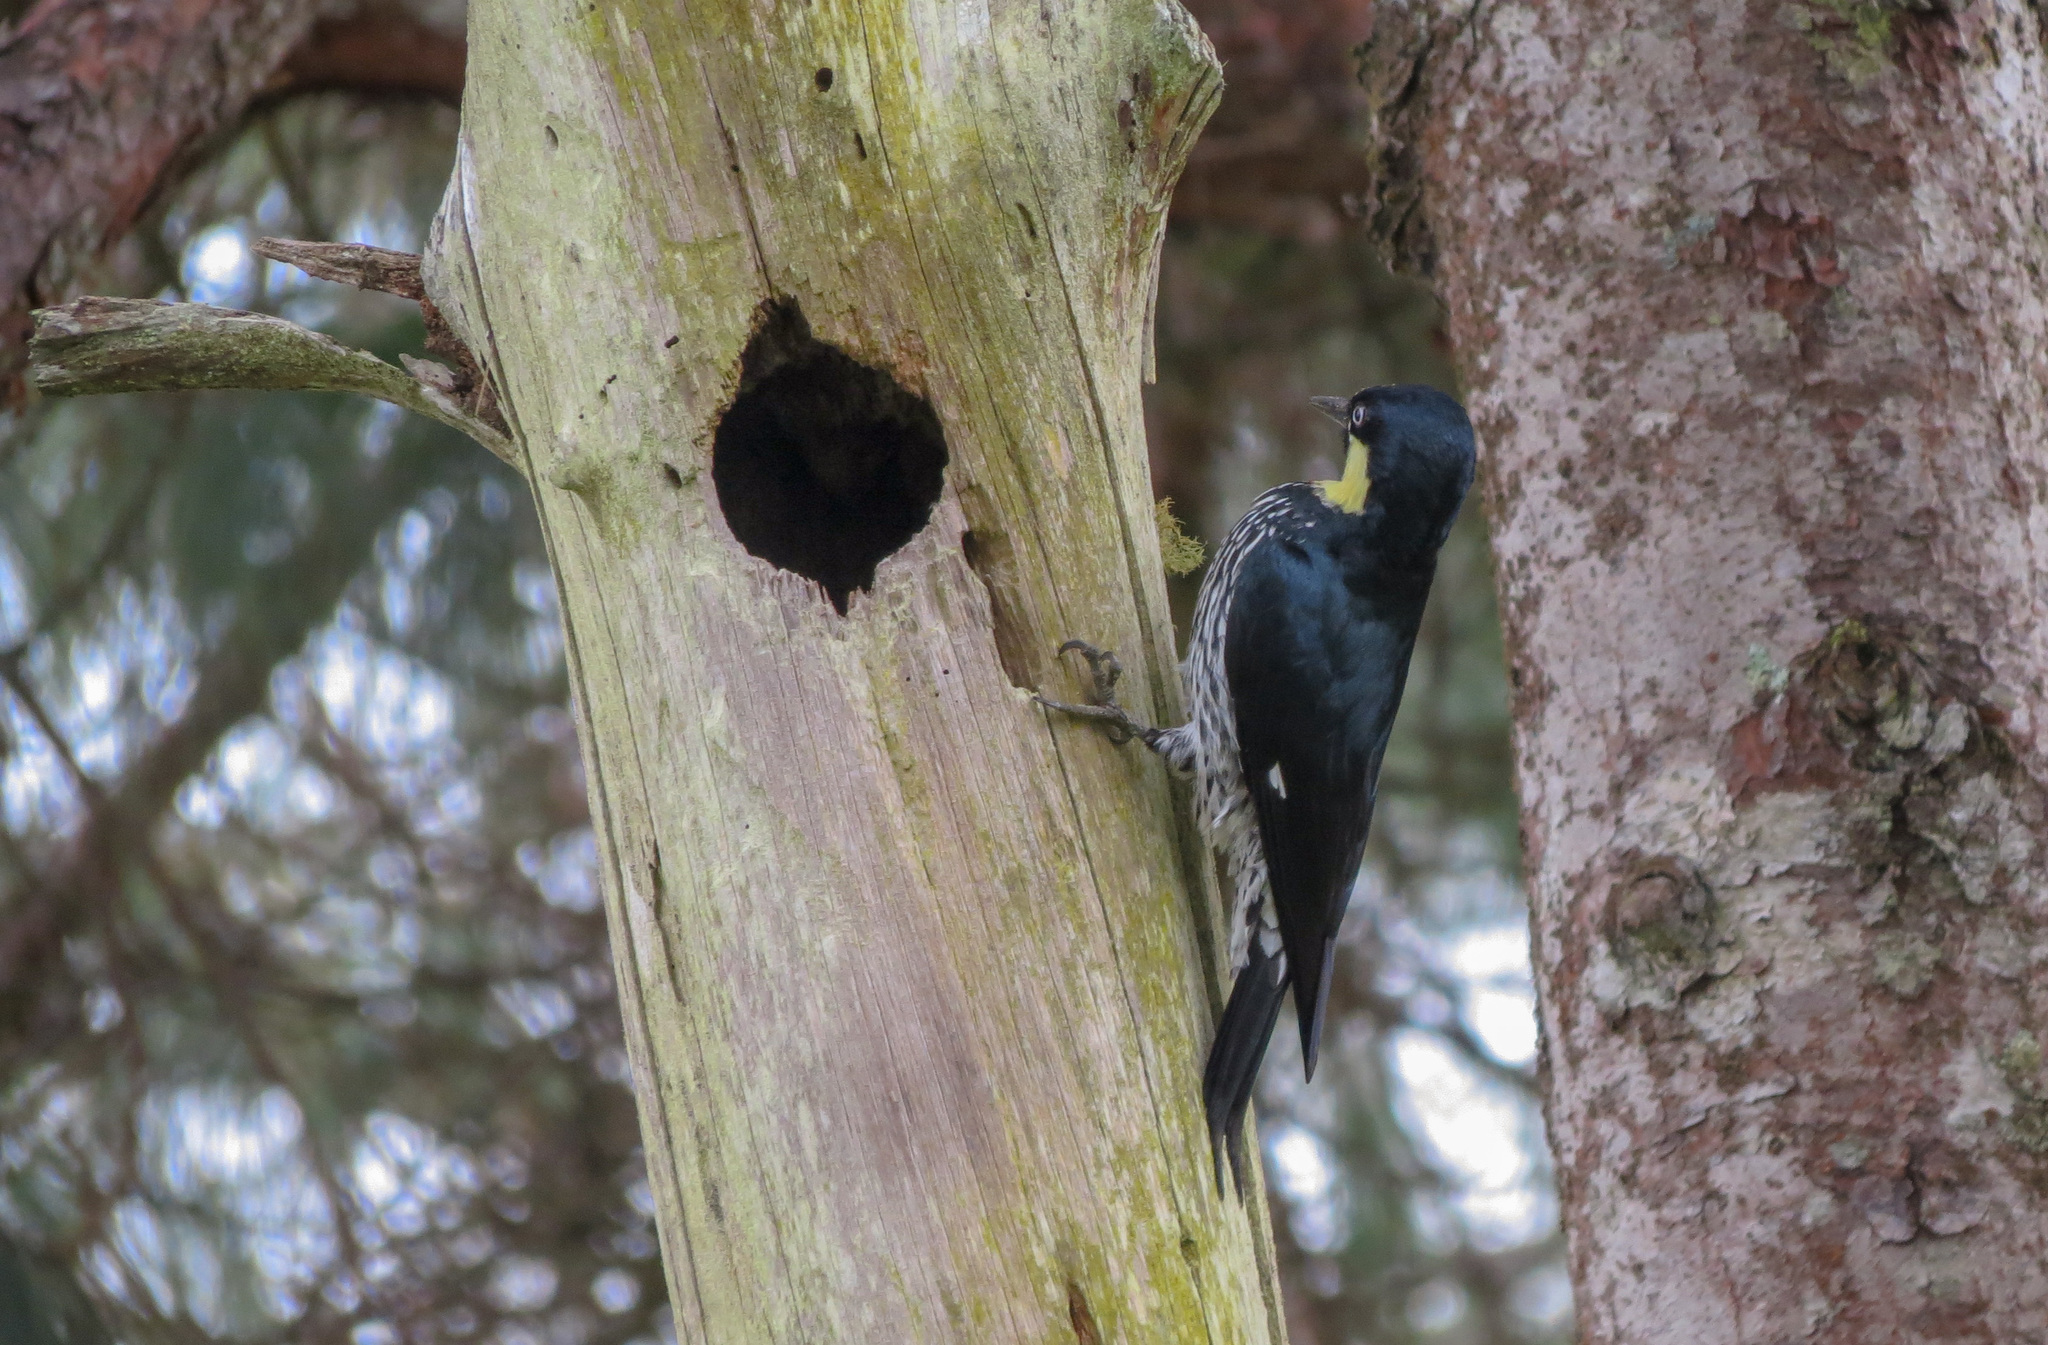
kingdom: Animalia
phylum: Chordata
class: Aves
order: Piciformes
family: Picidae
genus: Melanerpes
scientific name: Melanerpes formicivorus
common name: Acorn woodpecker
